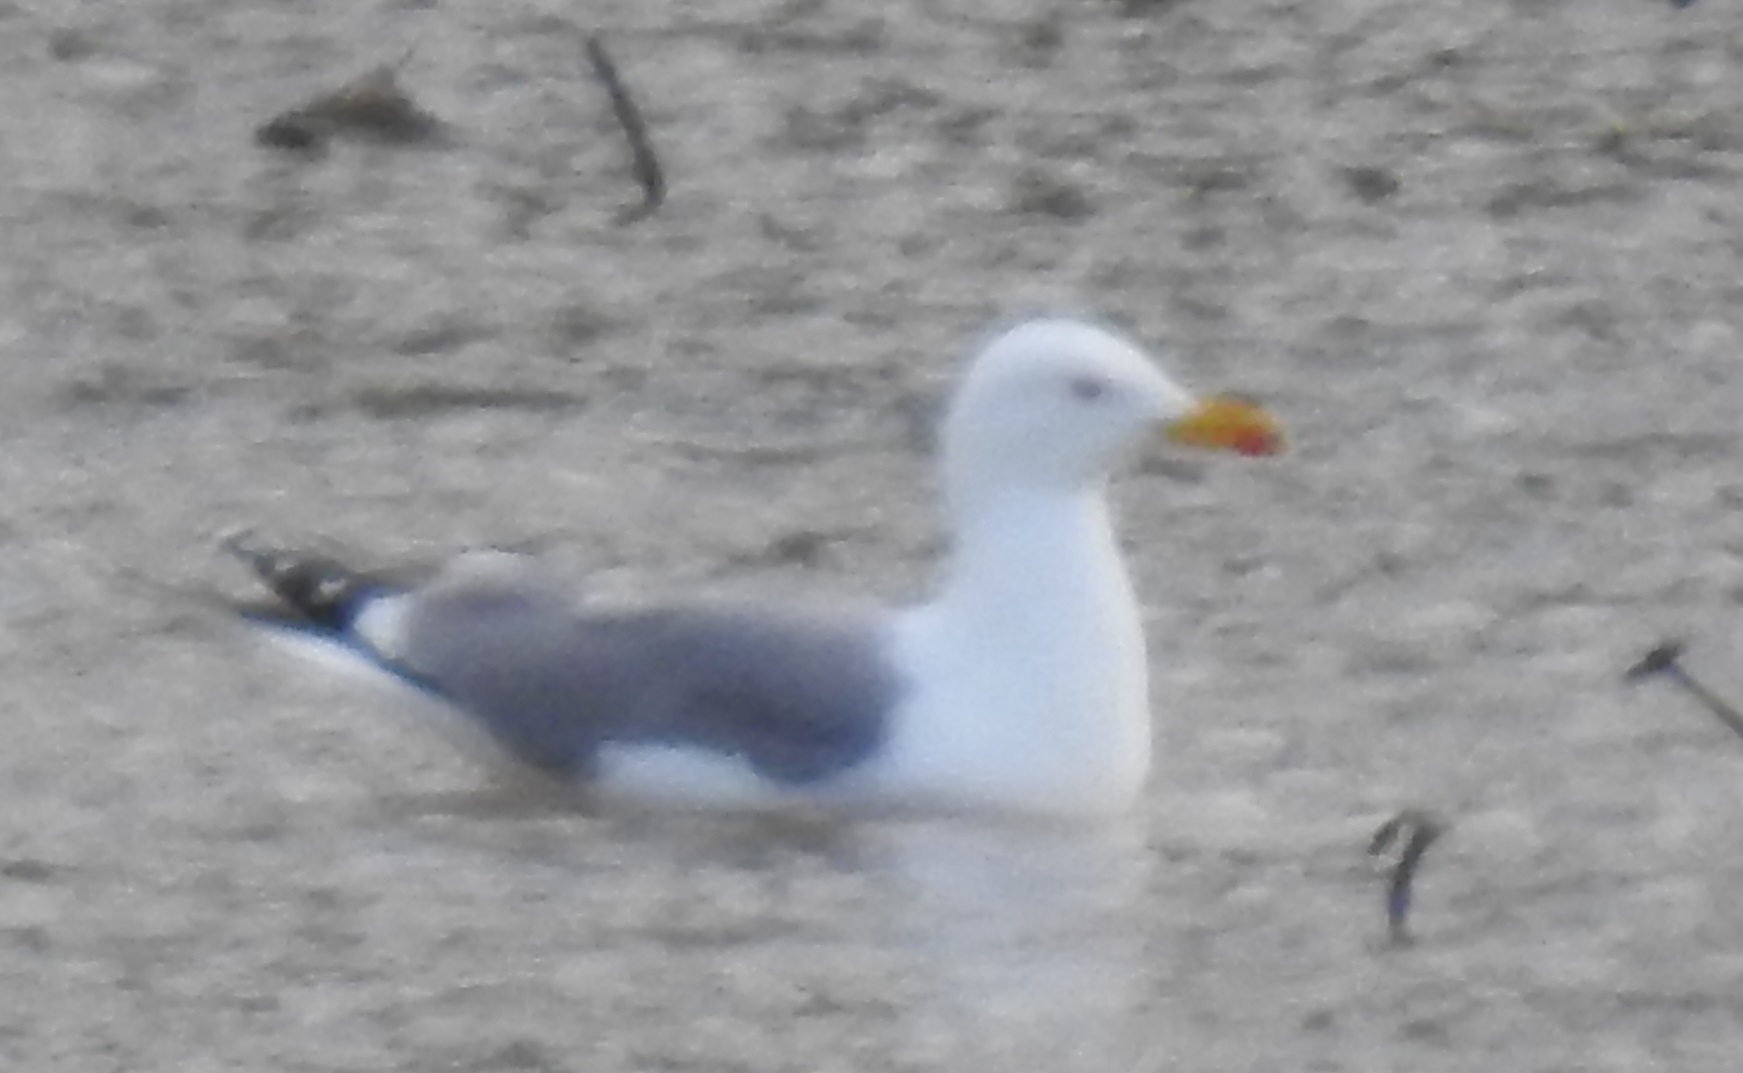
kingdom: Animalia
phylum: Chordata
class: Aves
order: Charadriiformes
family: Laridae
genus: Larus
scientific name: Larus michahellis
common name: Yellow-legged gull
